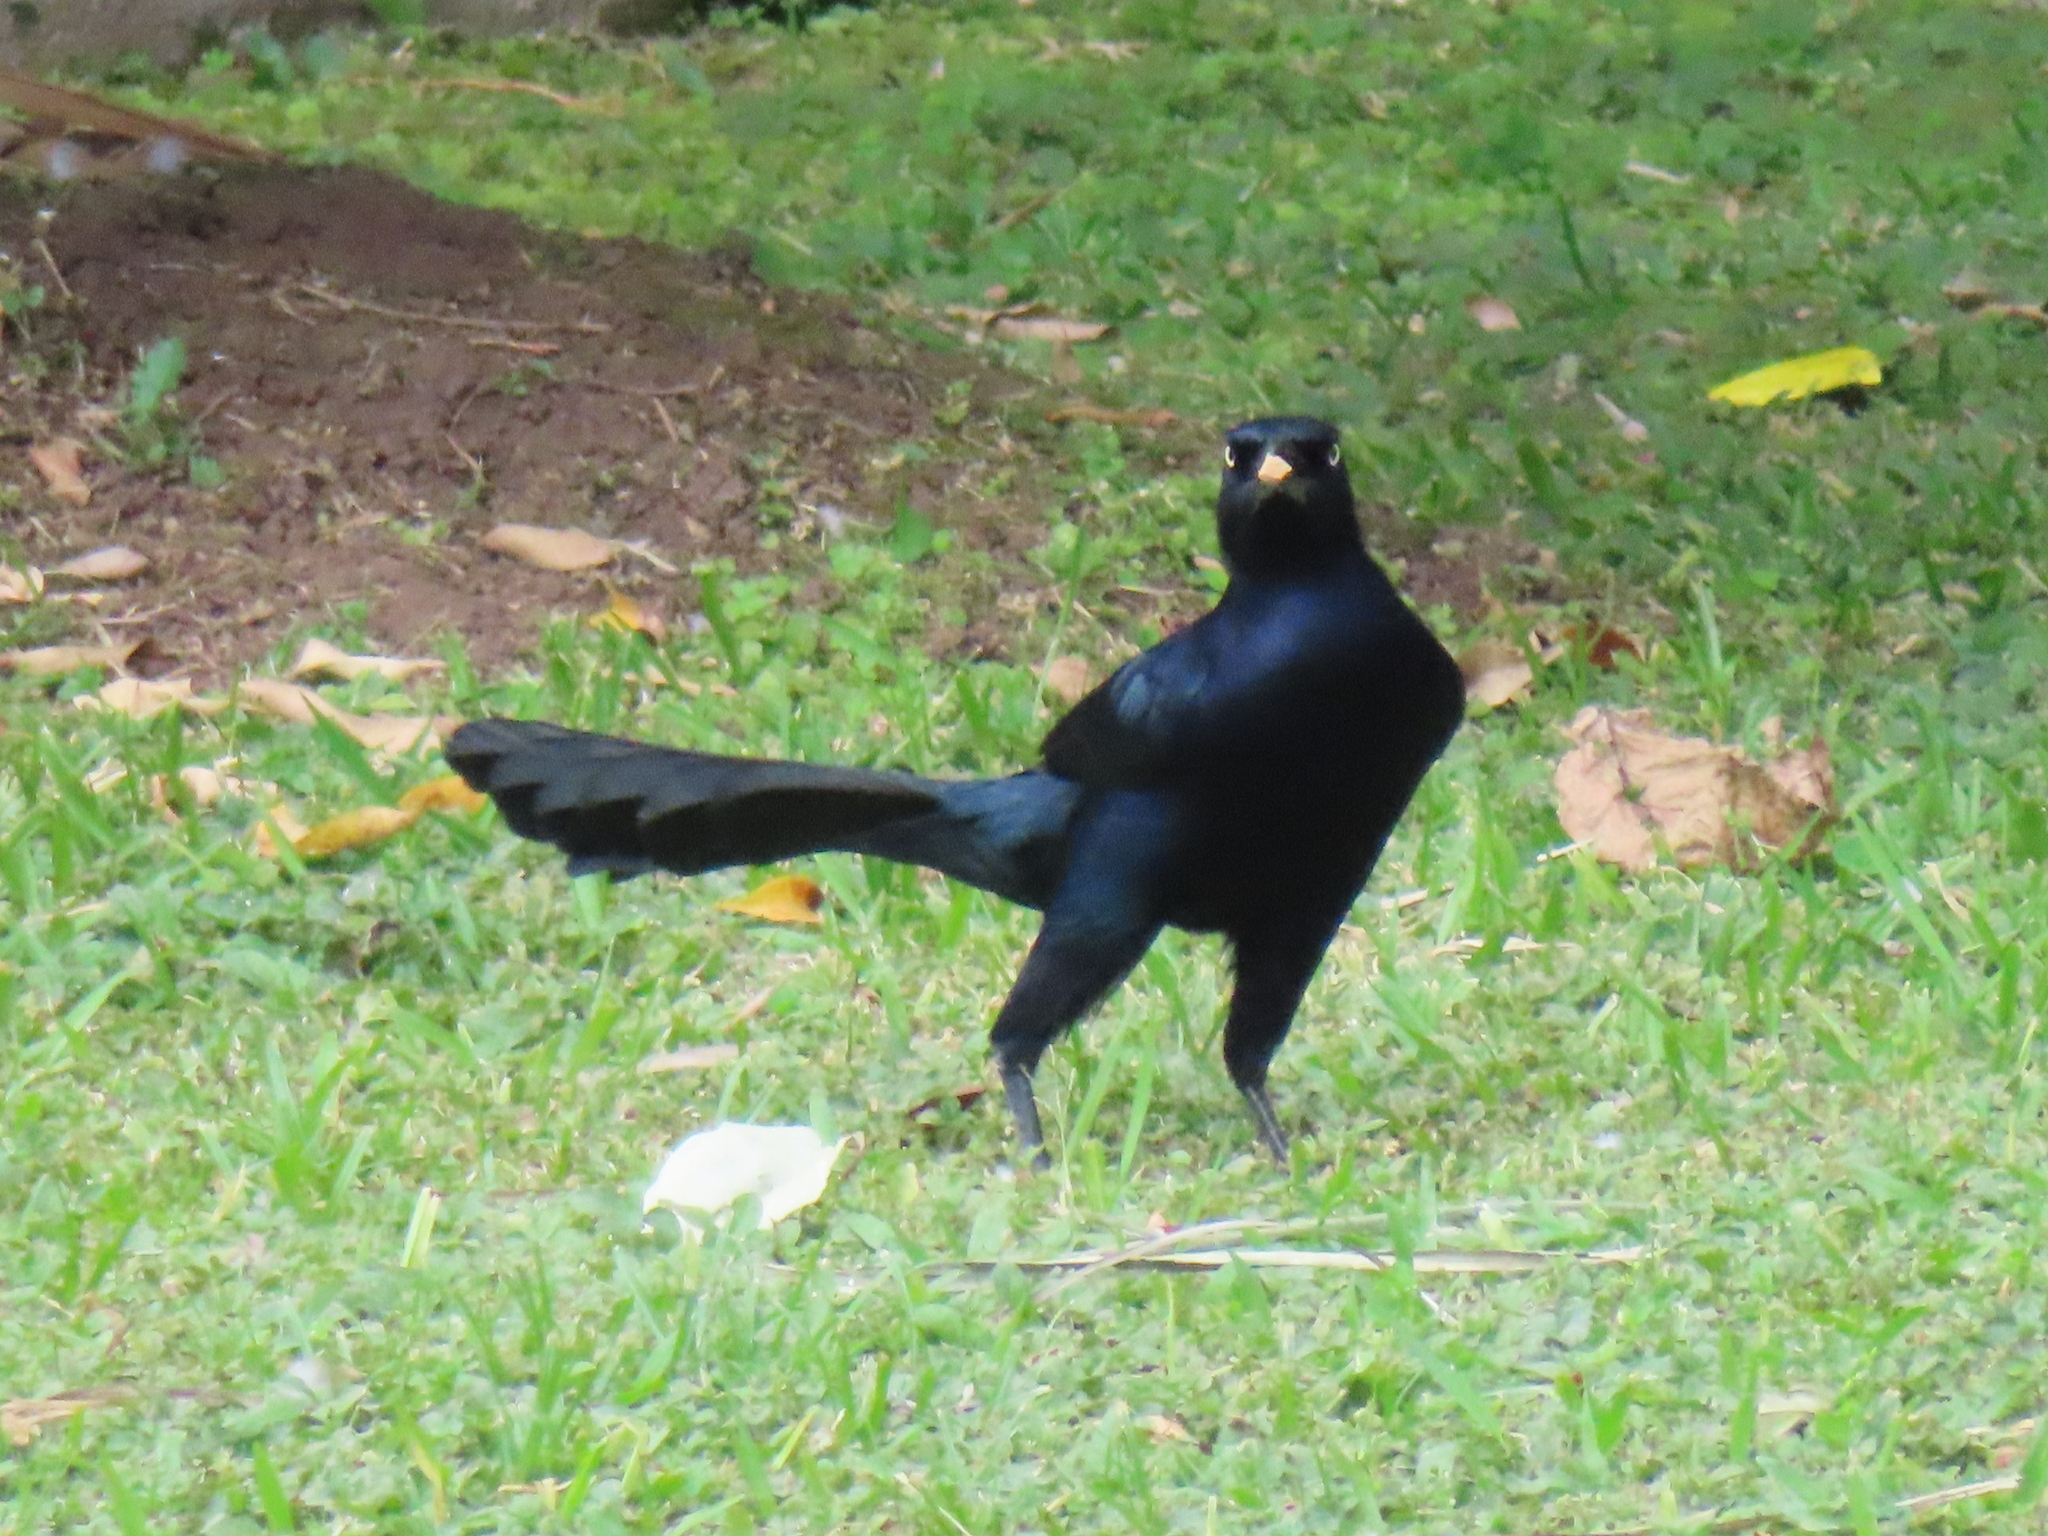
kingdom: Animalia
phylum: Chordata
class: Aves
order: Passeriformes
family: Icteridae
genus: Quiscalus
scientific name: Quiscalus mexicanus
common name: Great-tailed grackle
